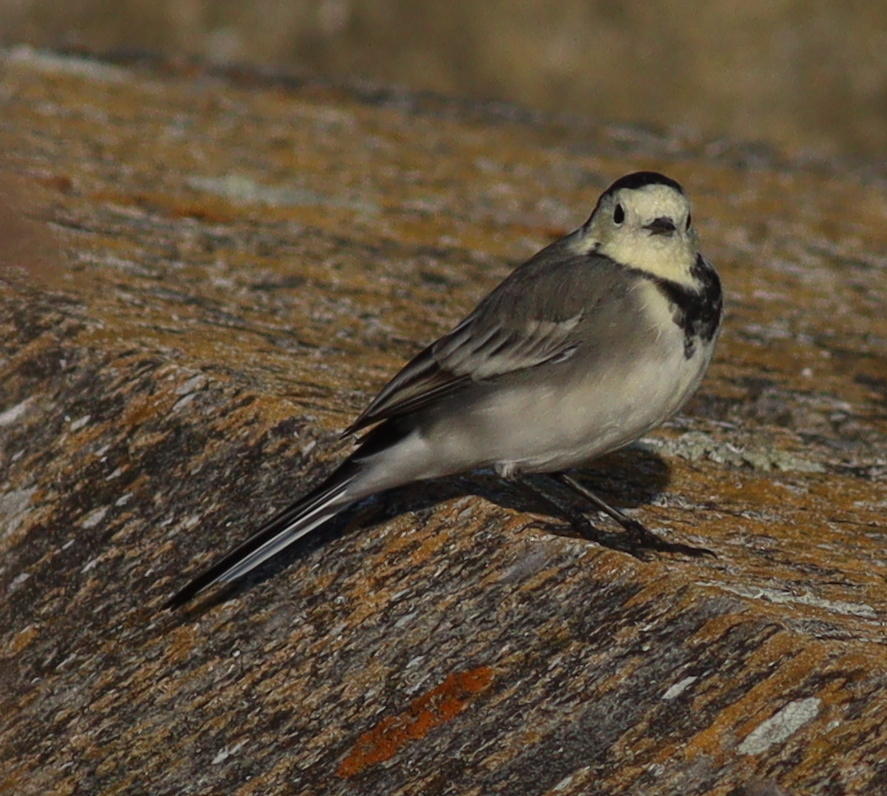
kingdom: Animalia
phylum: Chordata
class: Aves
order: Passeriformes
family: Motacillidae
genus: Motacilla
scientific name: Motacilla alba
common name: White wagtail
